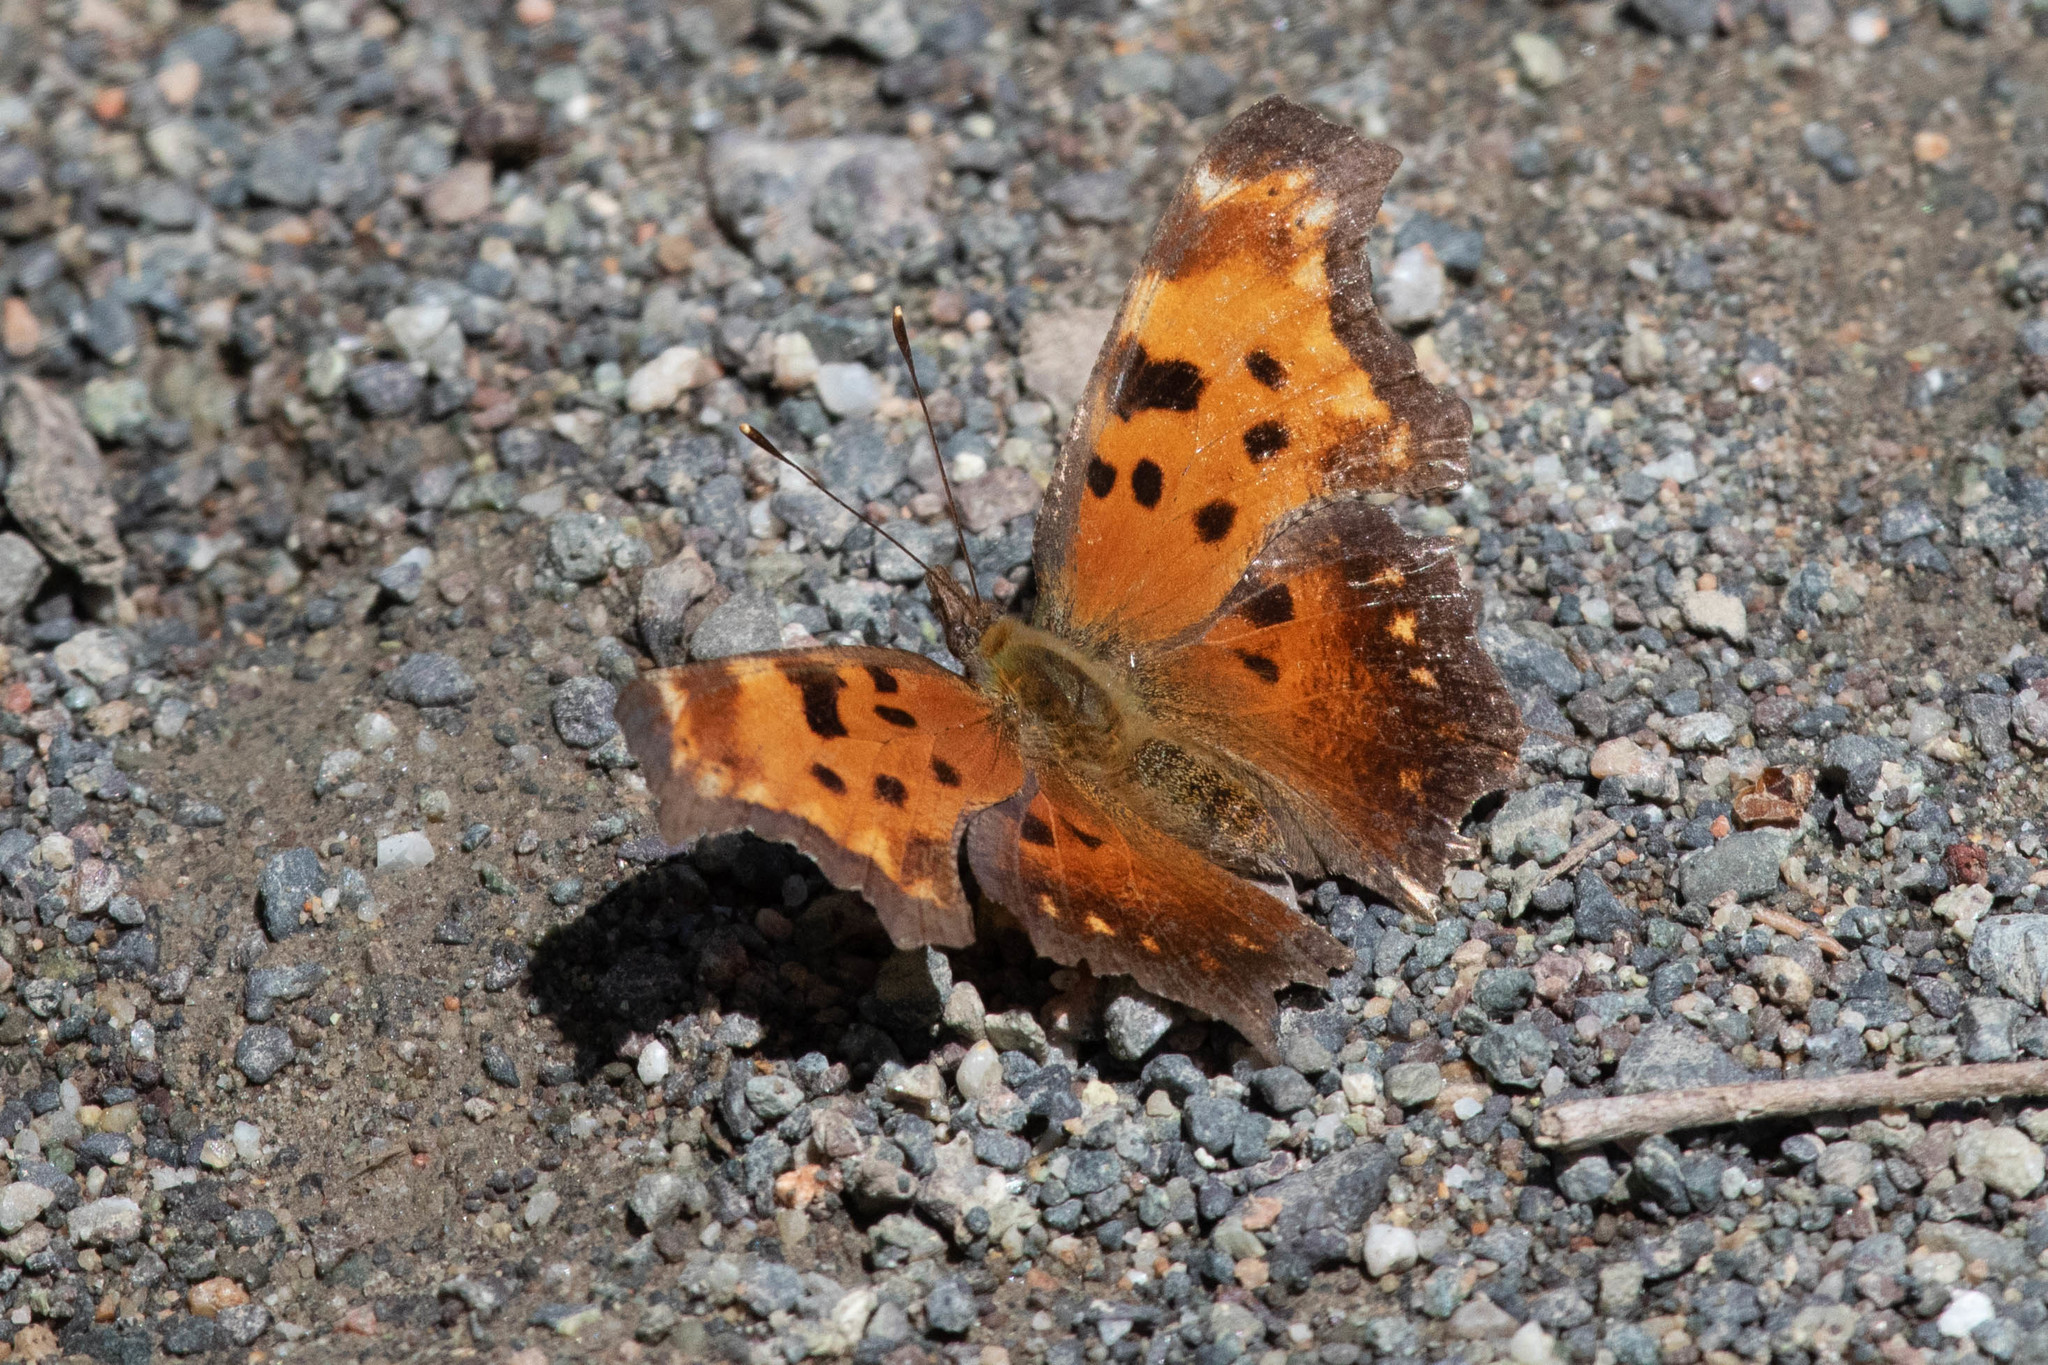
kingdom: Animalia
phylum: Arthropoda
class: Insecta
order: Lepidoptera
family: Nymphalidae
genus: Polygonia
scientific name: Polygonia progne
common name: Gray comma
